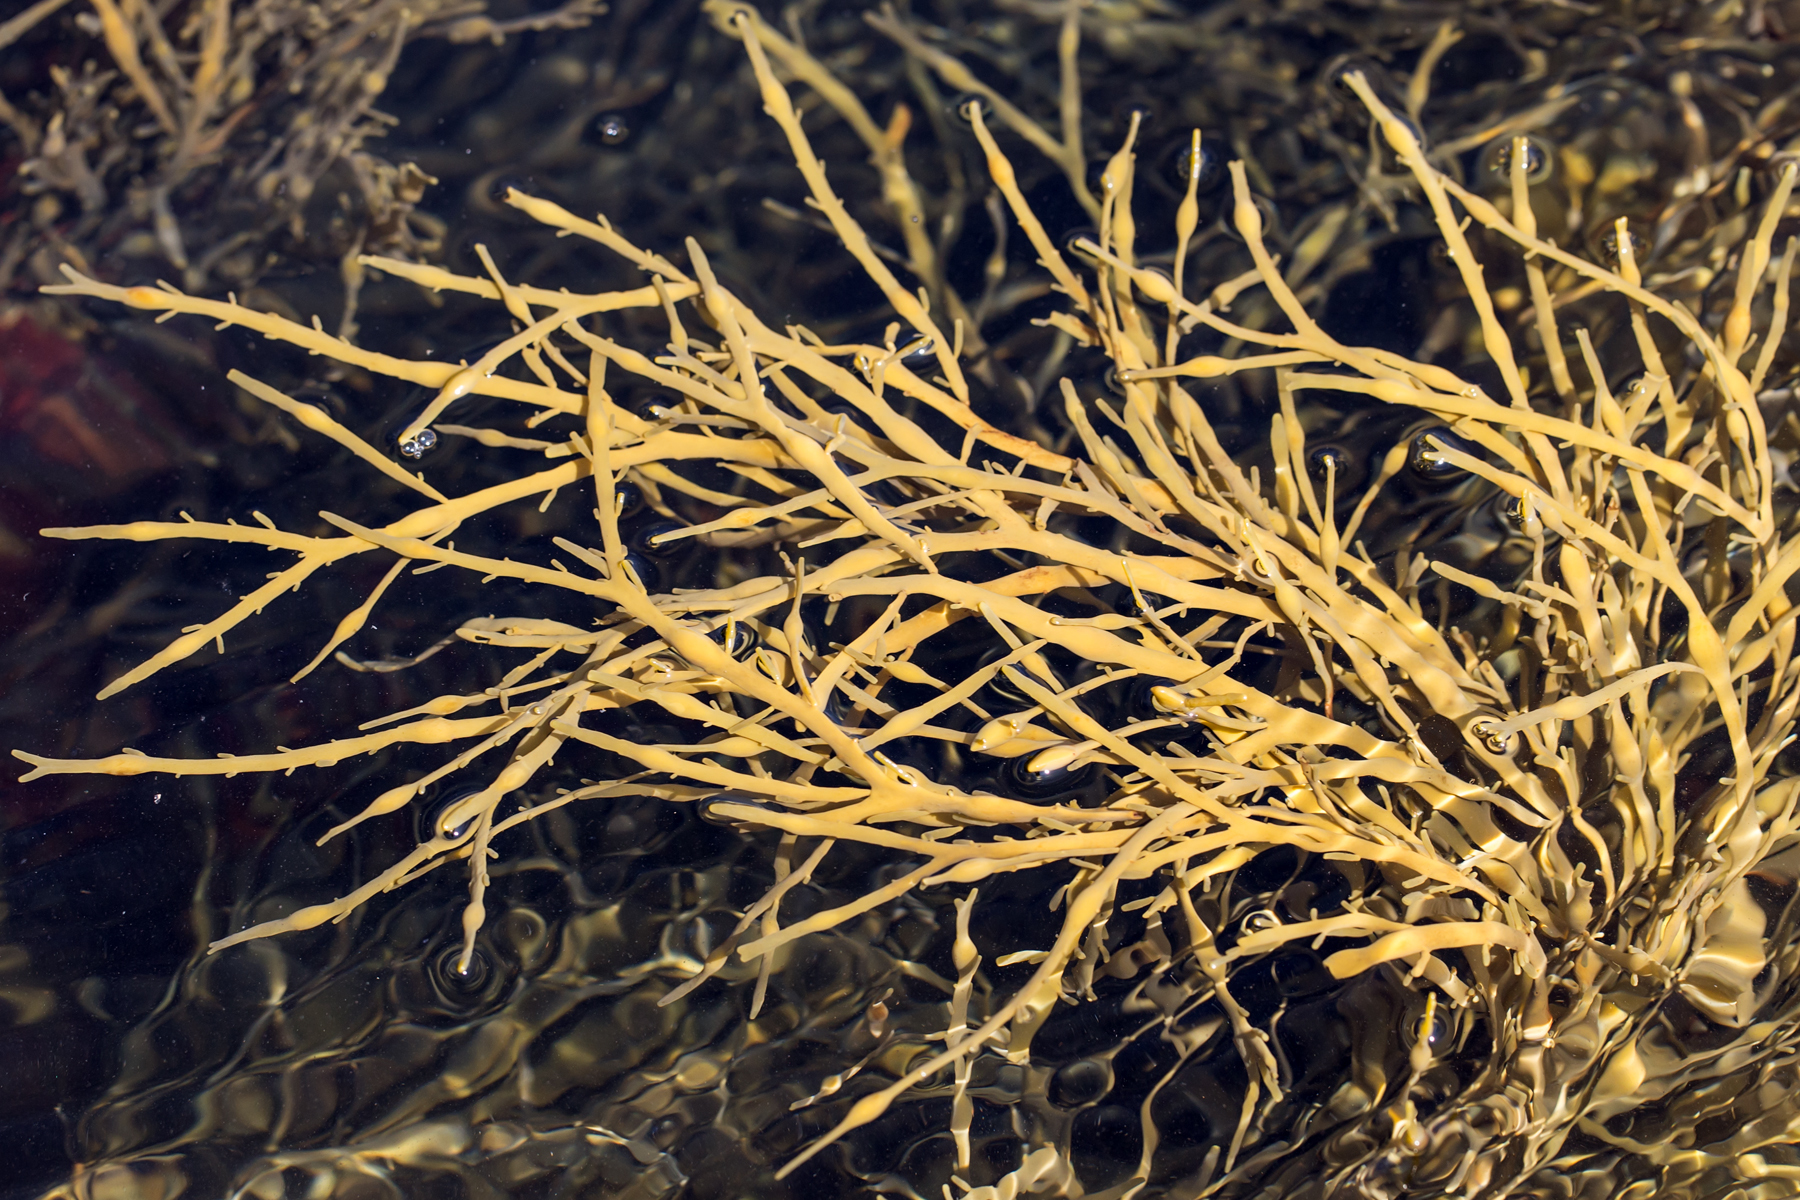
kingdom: Chromista
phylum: Ochrophyta
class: Phaeophyceae
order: Fucales
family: Fucaceae
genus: Ascophyllum
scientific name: Ascophyllum nodosum
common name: Knotted wrack
